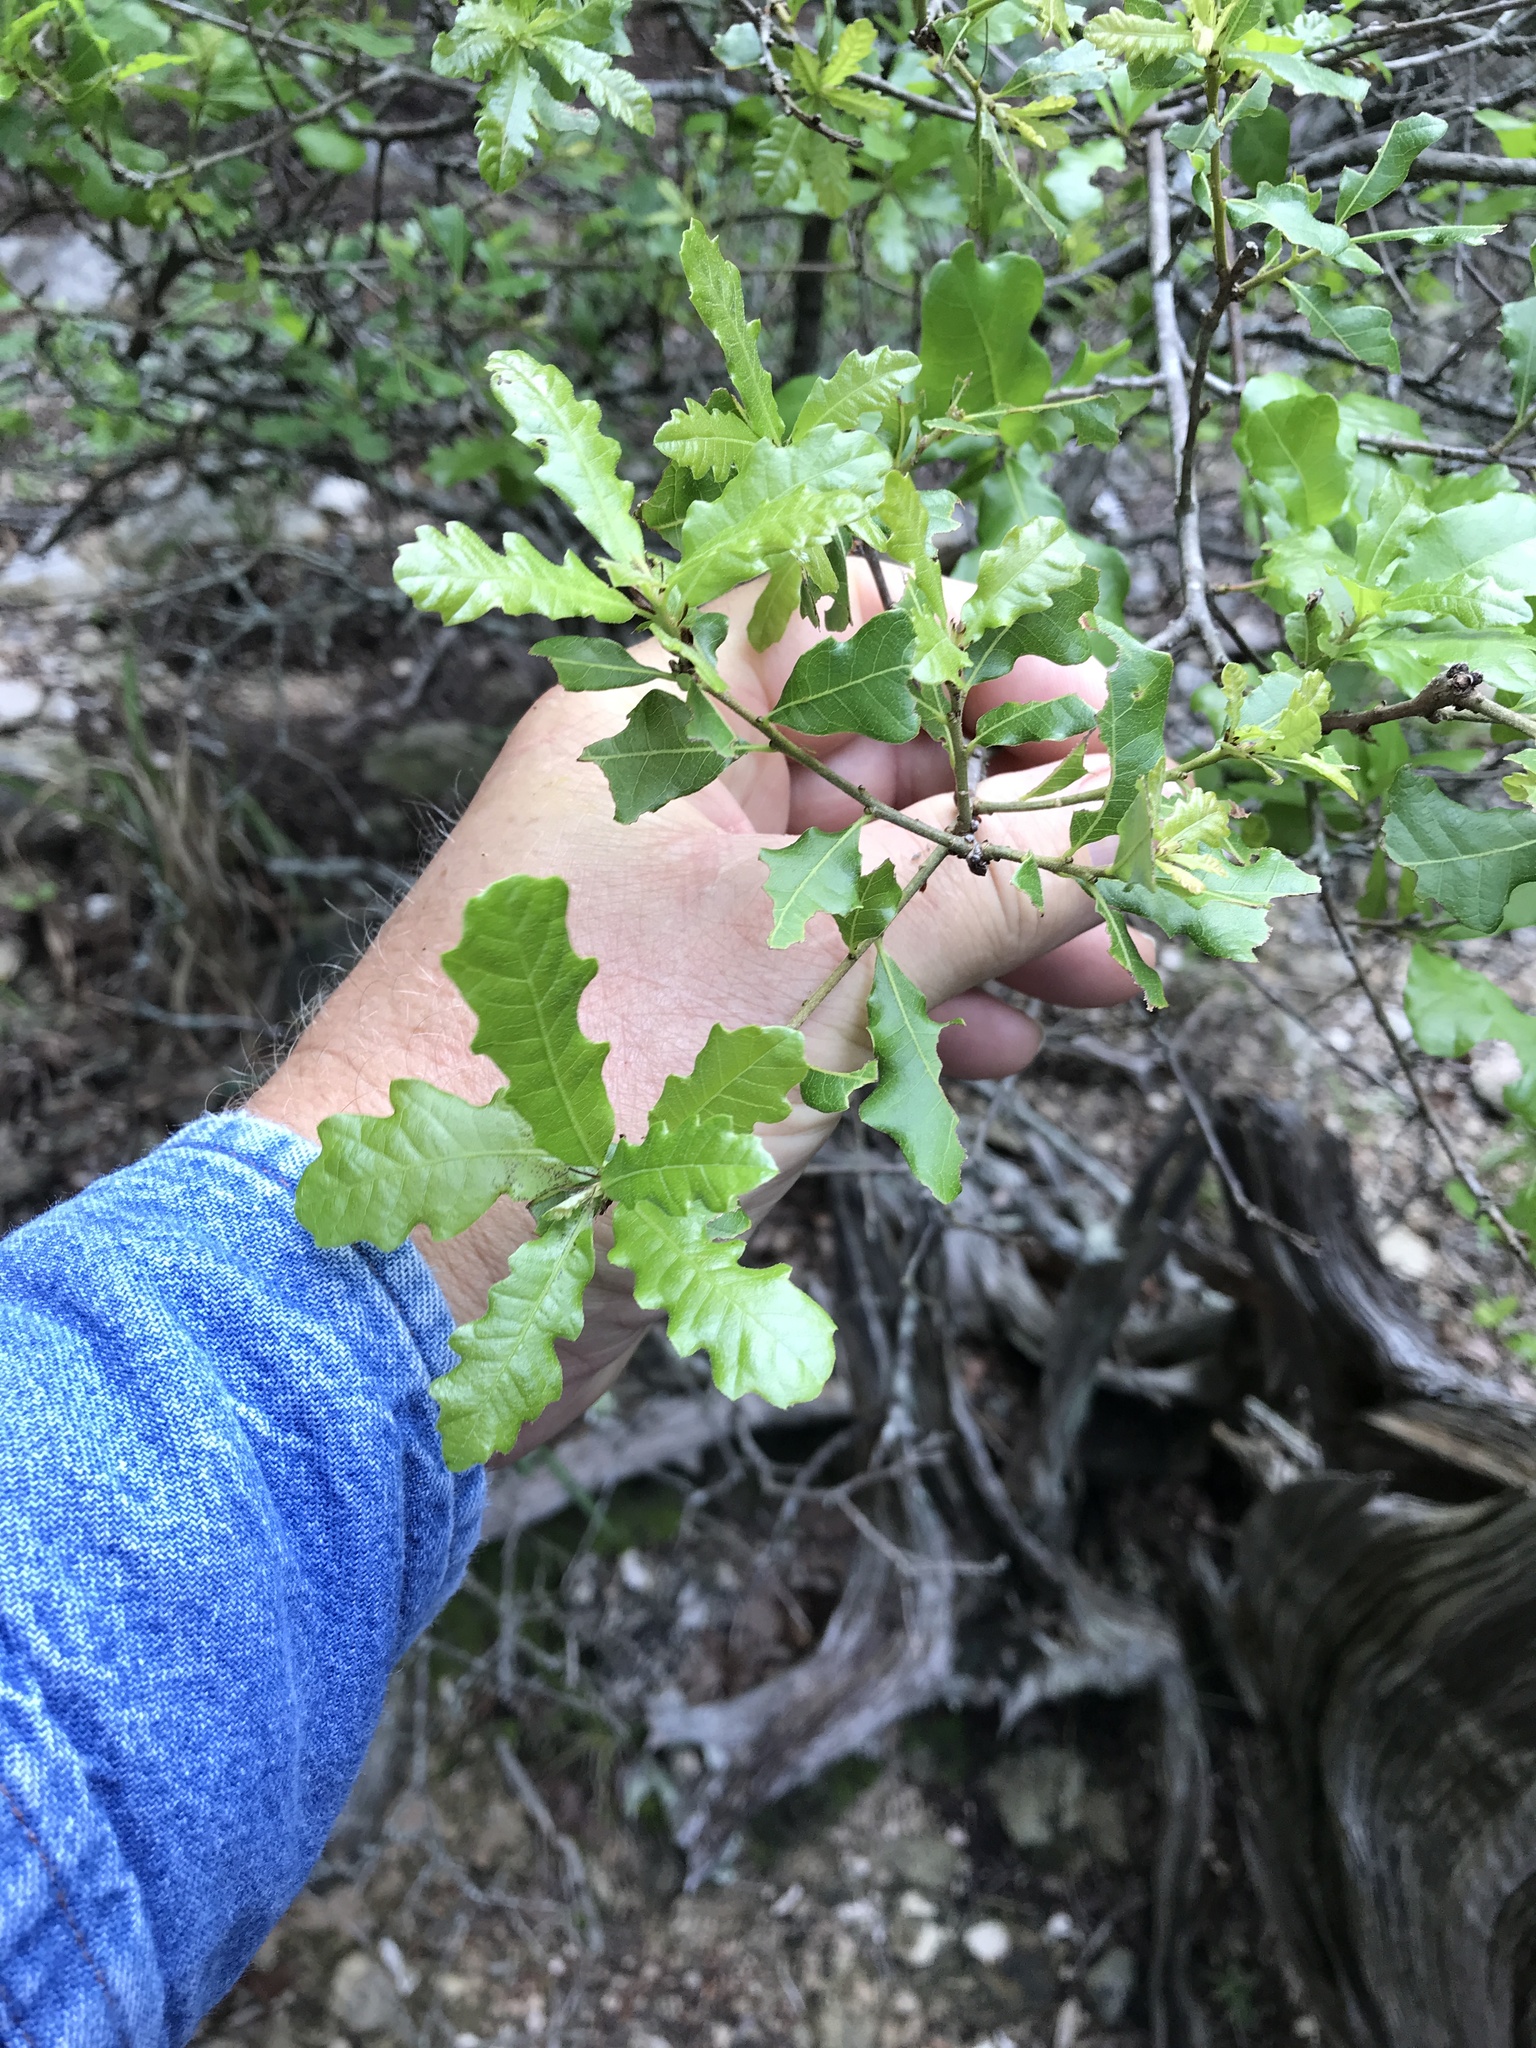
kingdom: Plantae
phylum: Tracheophyta
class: Magnoliopsida
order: Fagales
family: Fagaceae
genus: Quercus
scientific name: Quercus sinuata
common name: Durand oak
